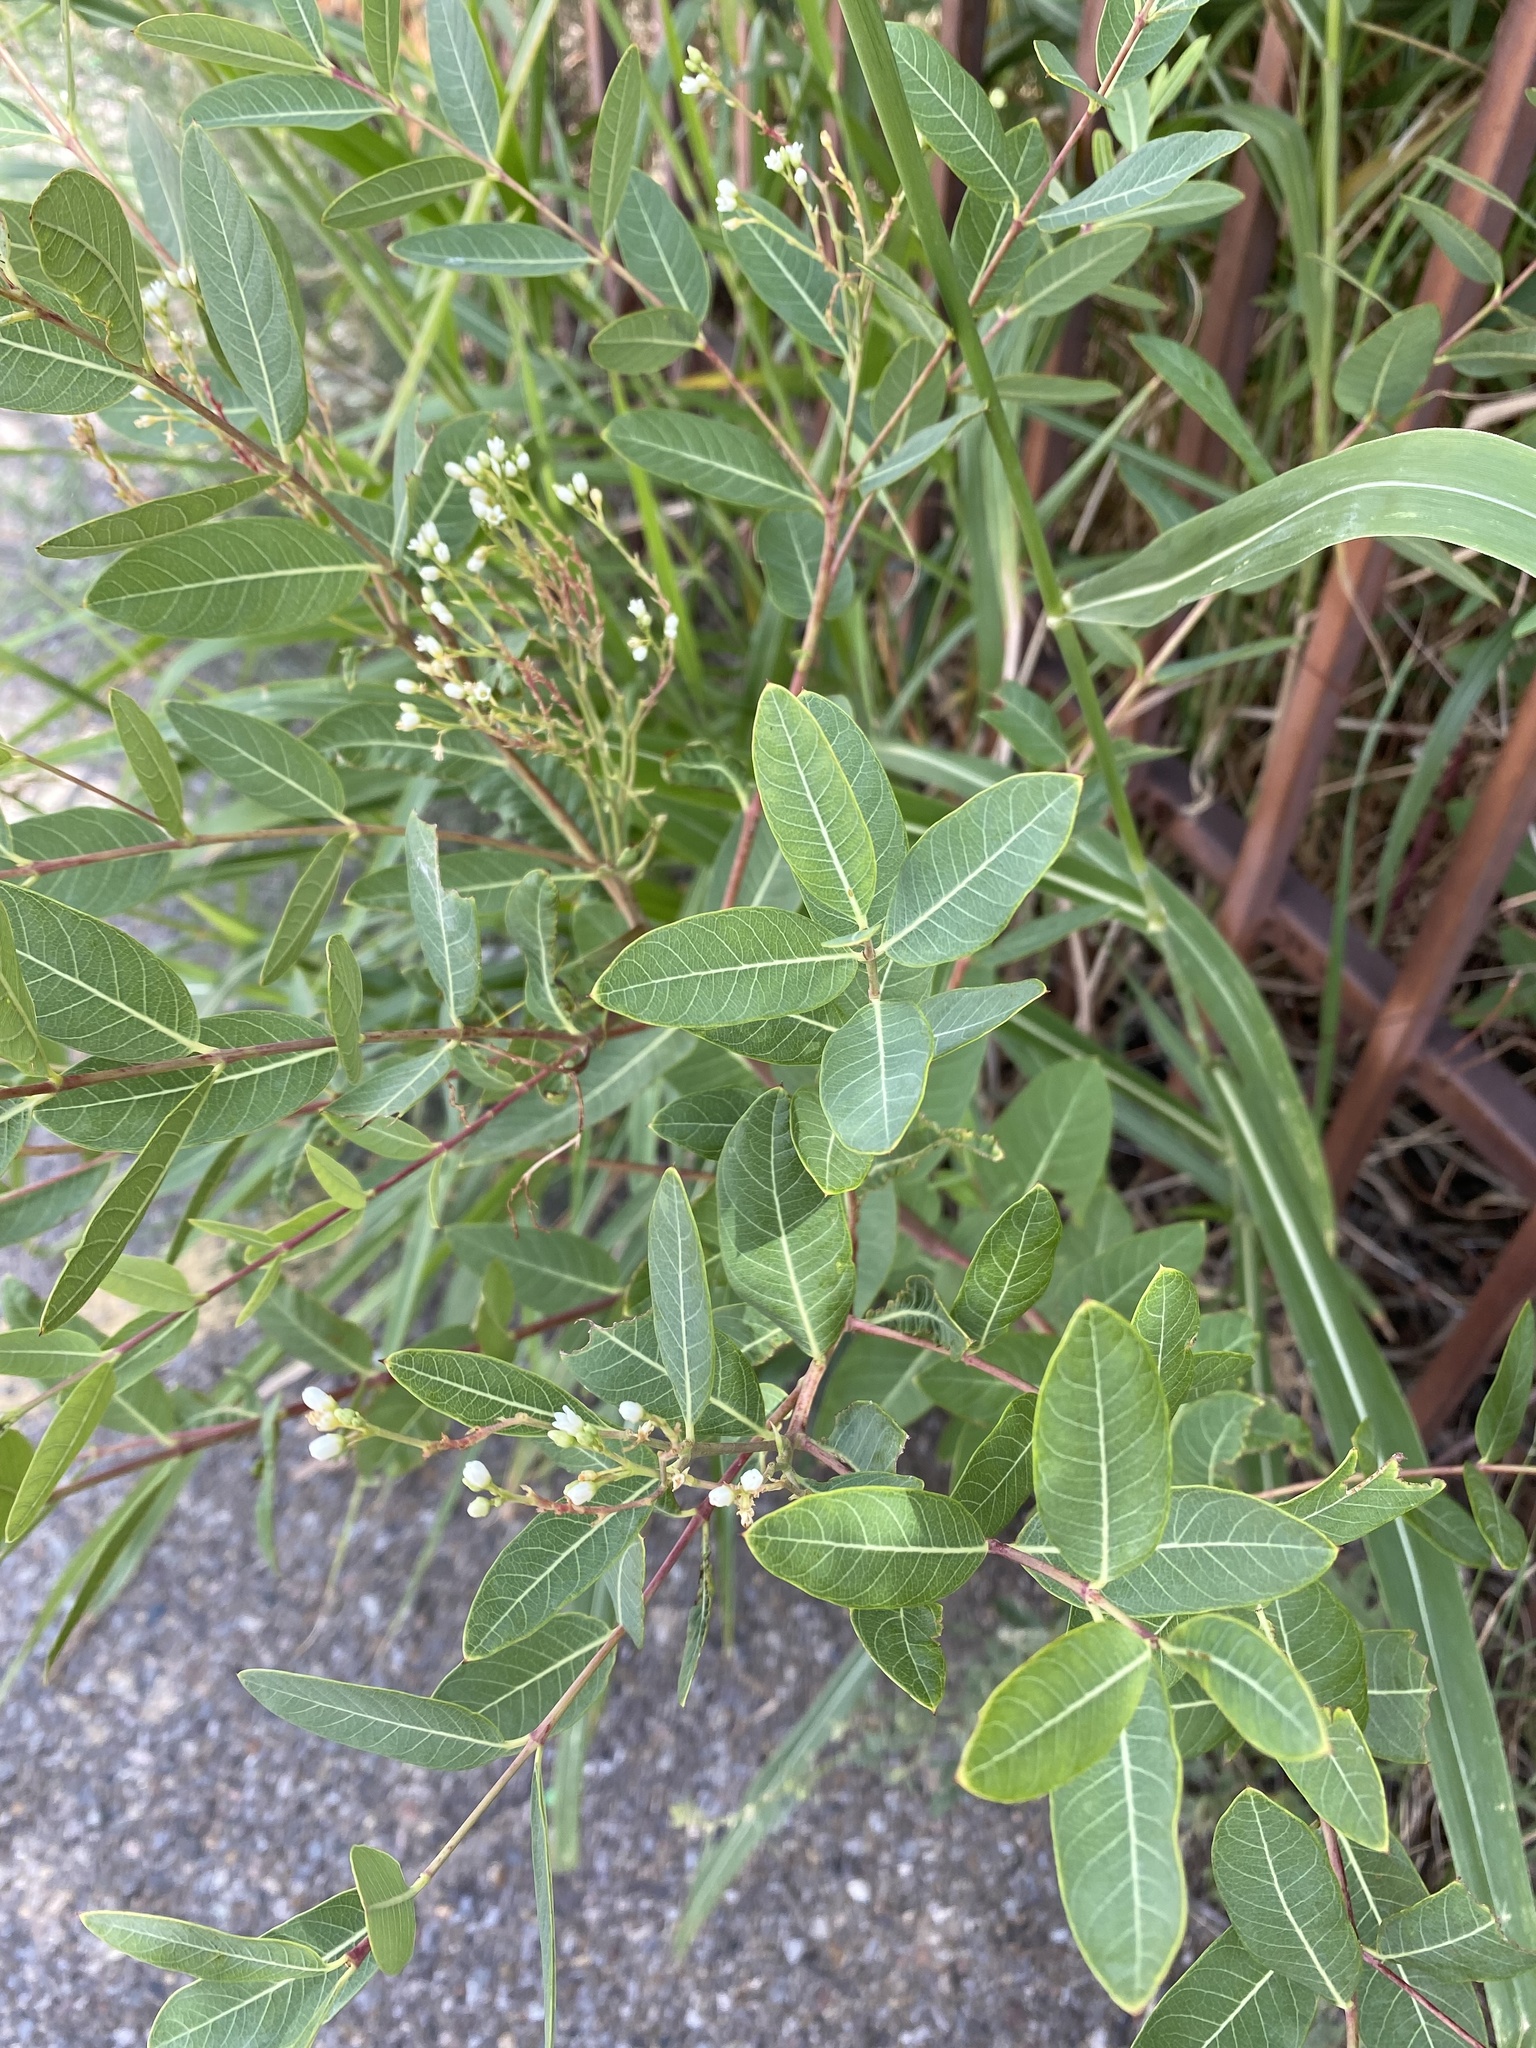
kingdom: Plantae
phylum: Tracheophyta
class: Magnoliopsida
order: Gentianales
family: Apocynaceae
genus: Apocynum
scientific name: Apocynum cannabinum
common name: Hemp dogbane
